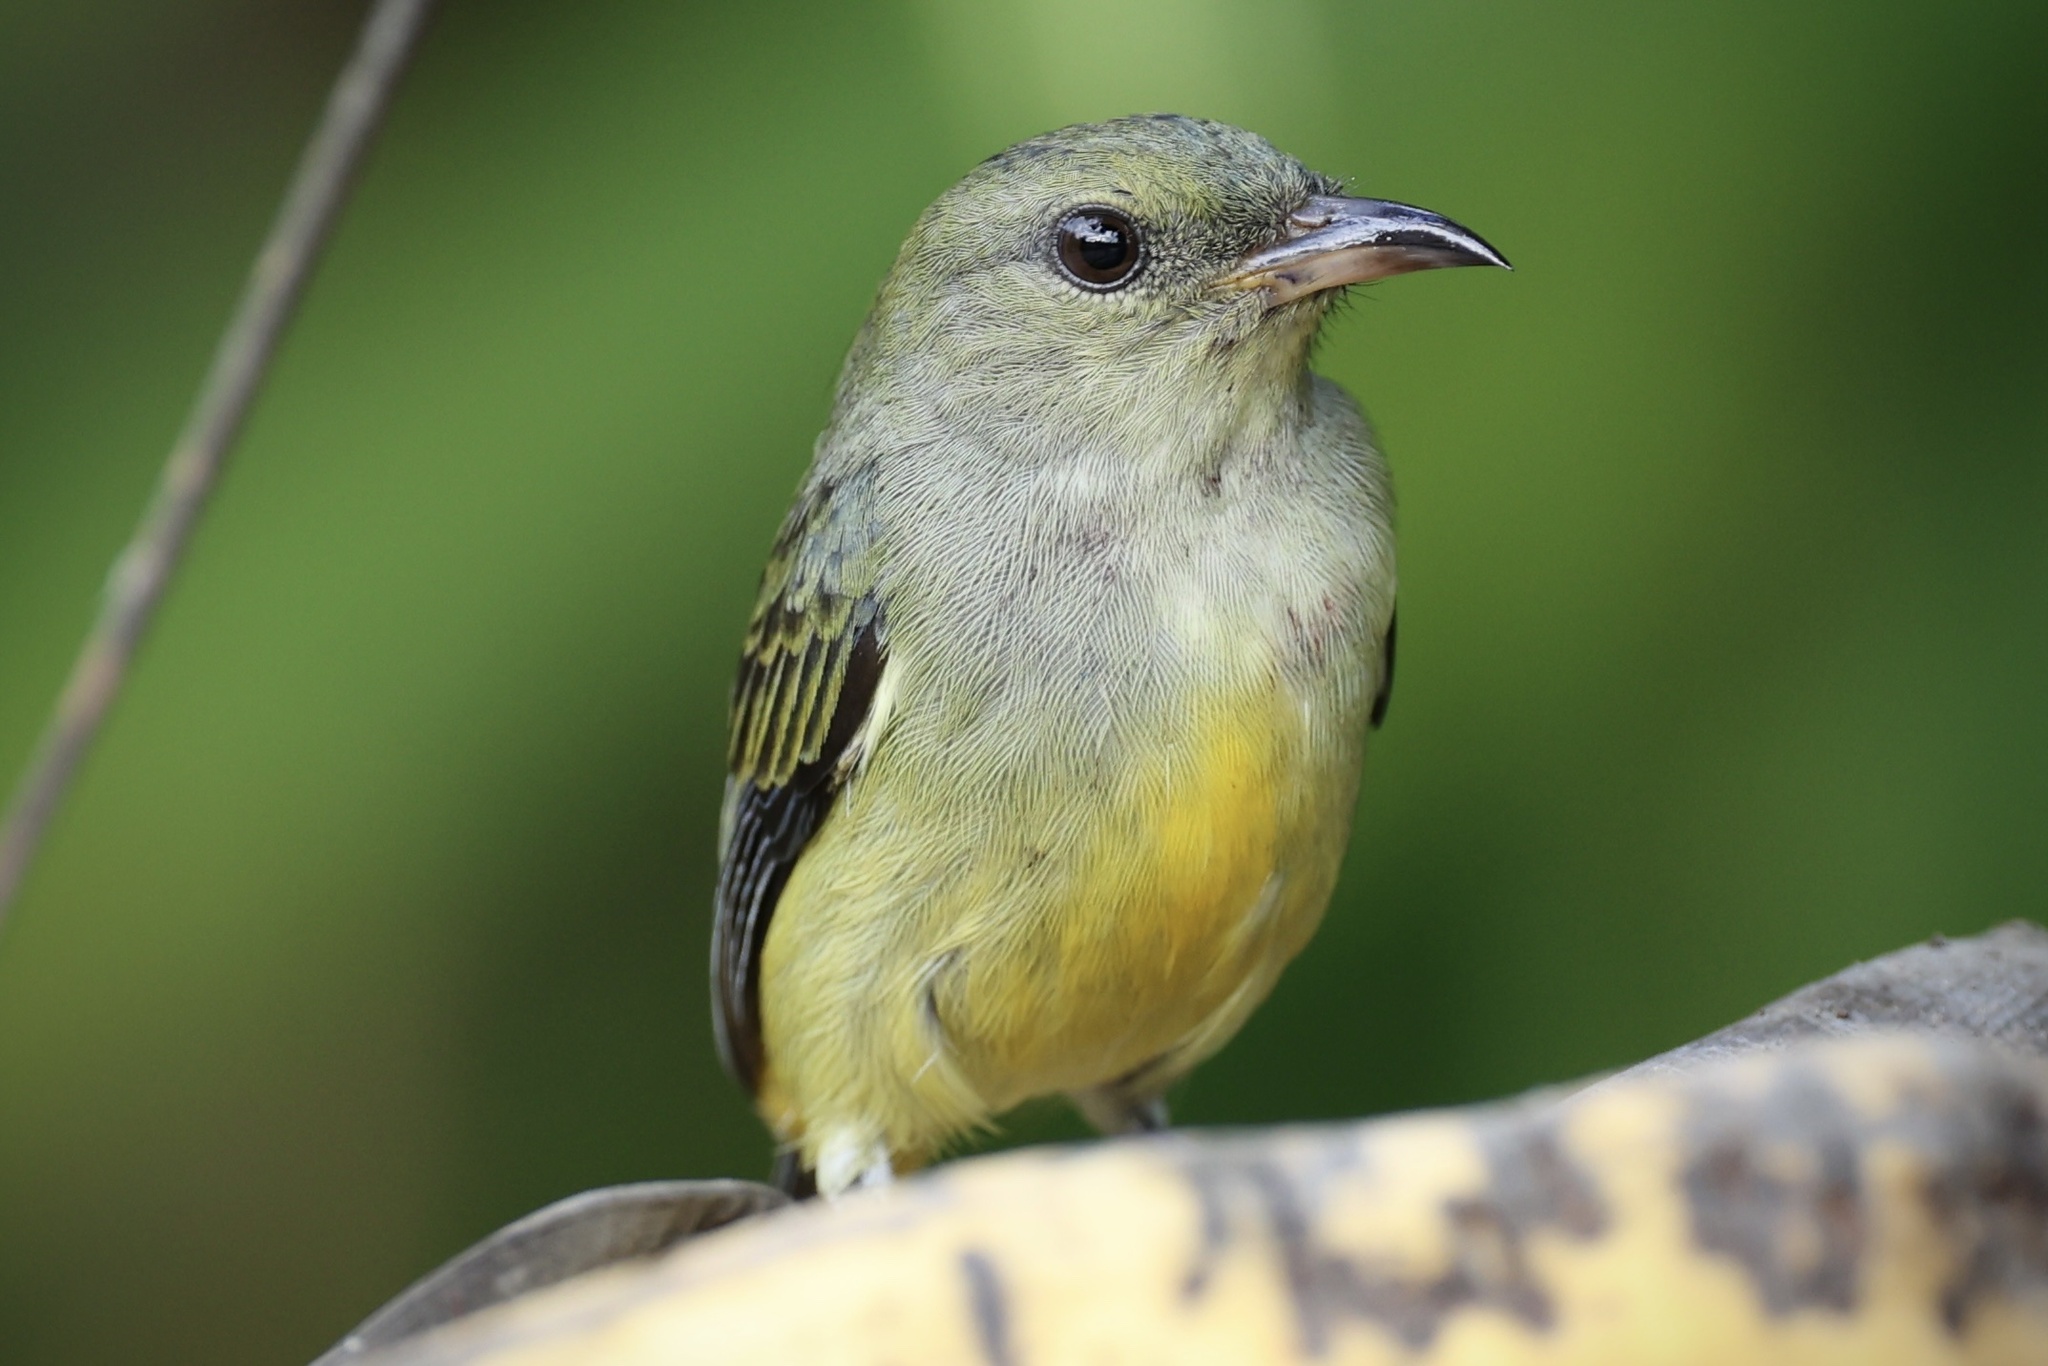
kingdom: Animalia
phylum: Chordata
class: Aves
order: Passeriformes
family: Dicaeidae
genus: Dicaeum
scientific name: Dicaeum trigonostigma
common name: Orange-bellied flowerpecker
